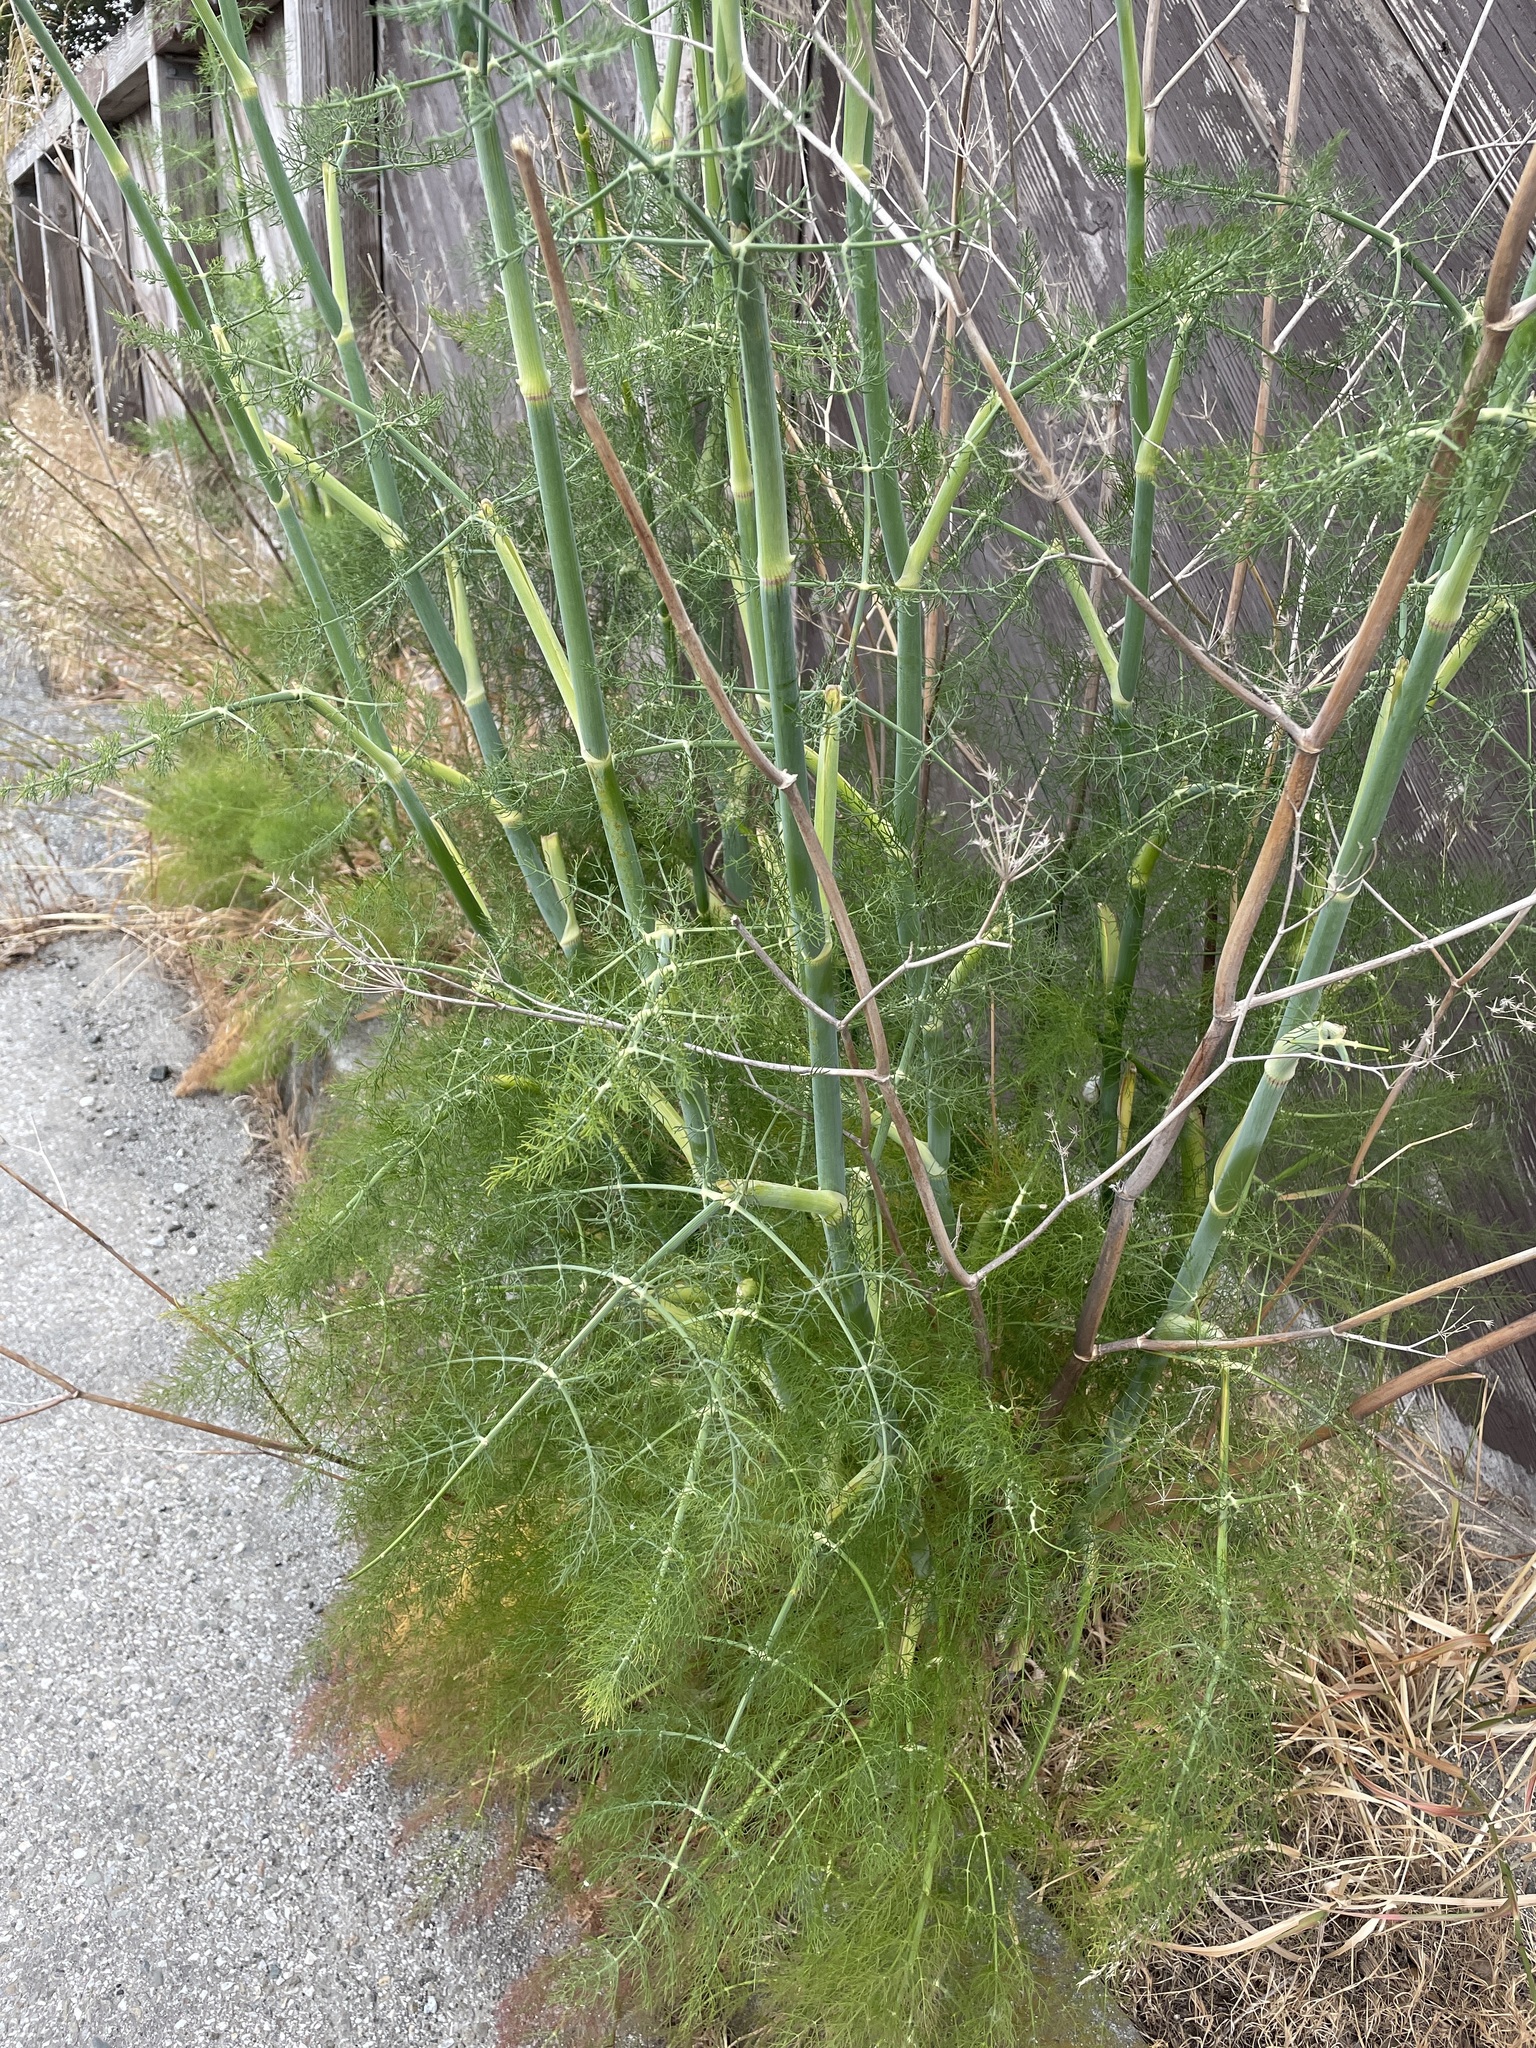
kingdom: Plantae
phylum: Tracheophyta
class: Magnoliopsida
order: Apiales
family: Apiaceae
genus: Foeniculum
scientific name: Foeniculum vulgare
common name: Fennel
